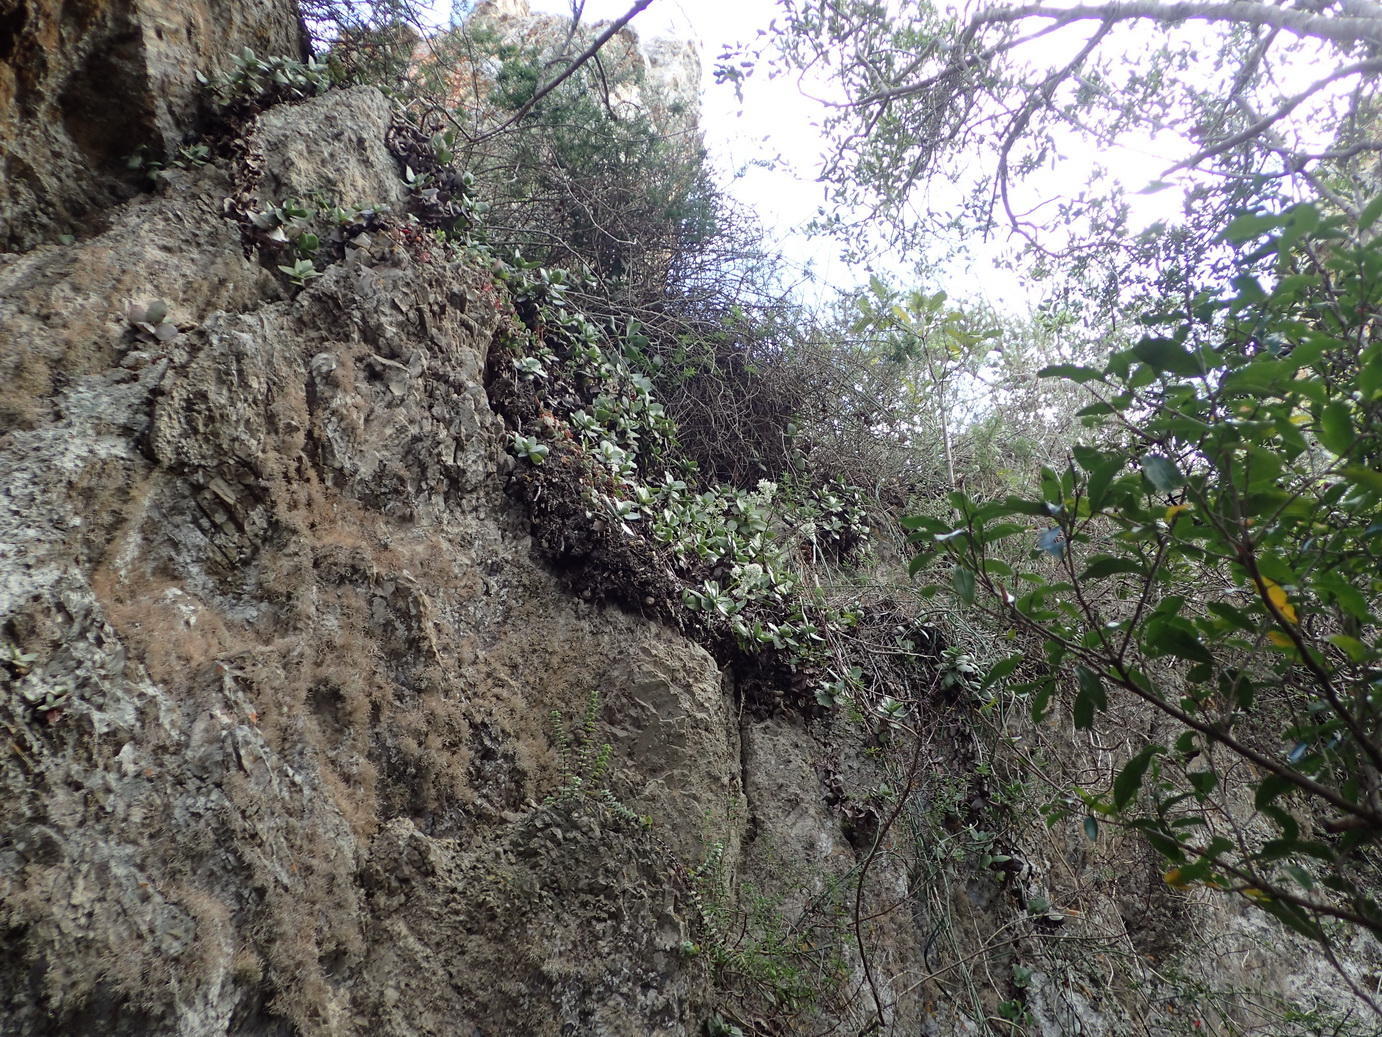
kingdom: Plantae
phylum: Tracheophyta
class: Magnoliopsida
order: Saxifragales
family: Crassulaceae
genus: Crassula
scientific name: Crassula lactea
